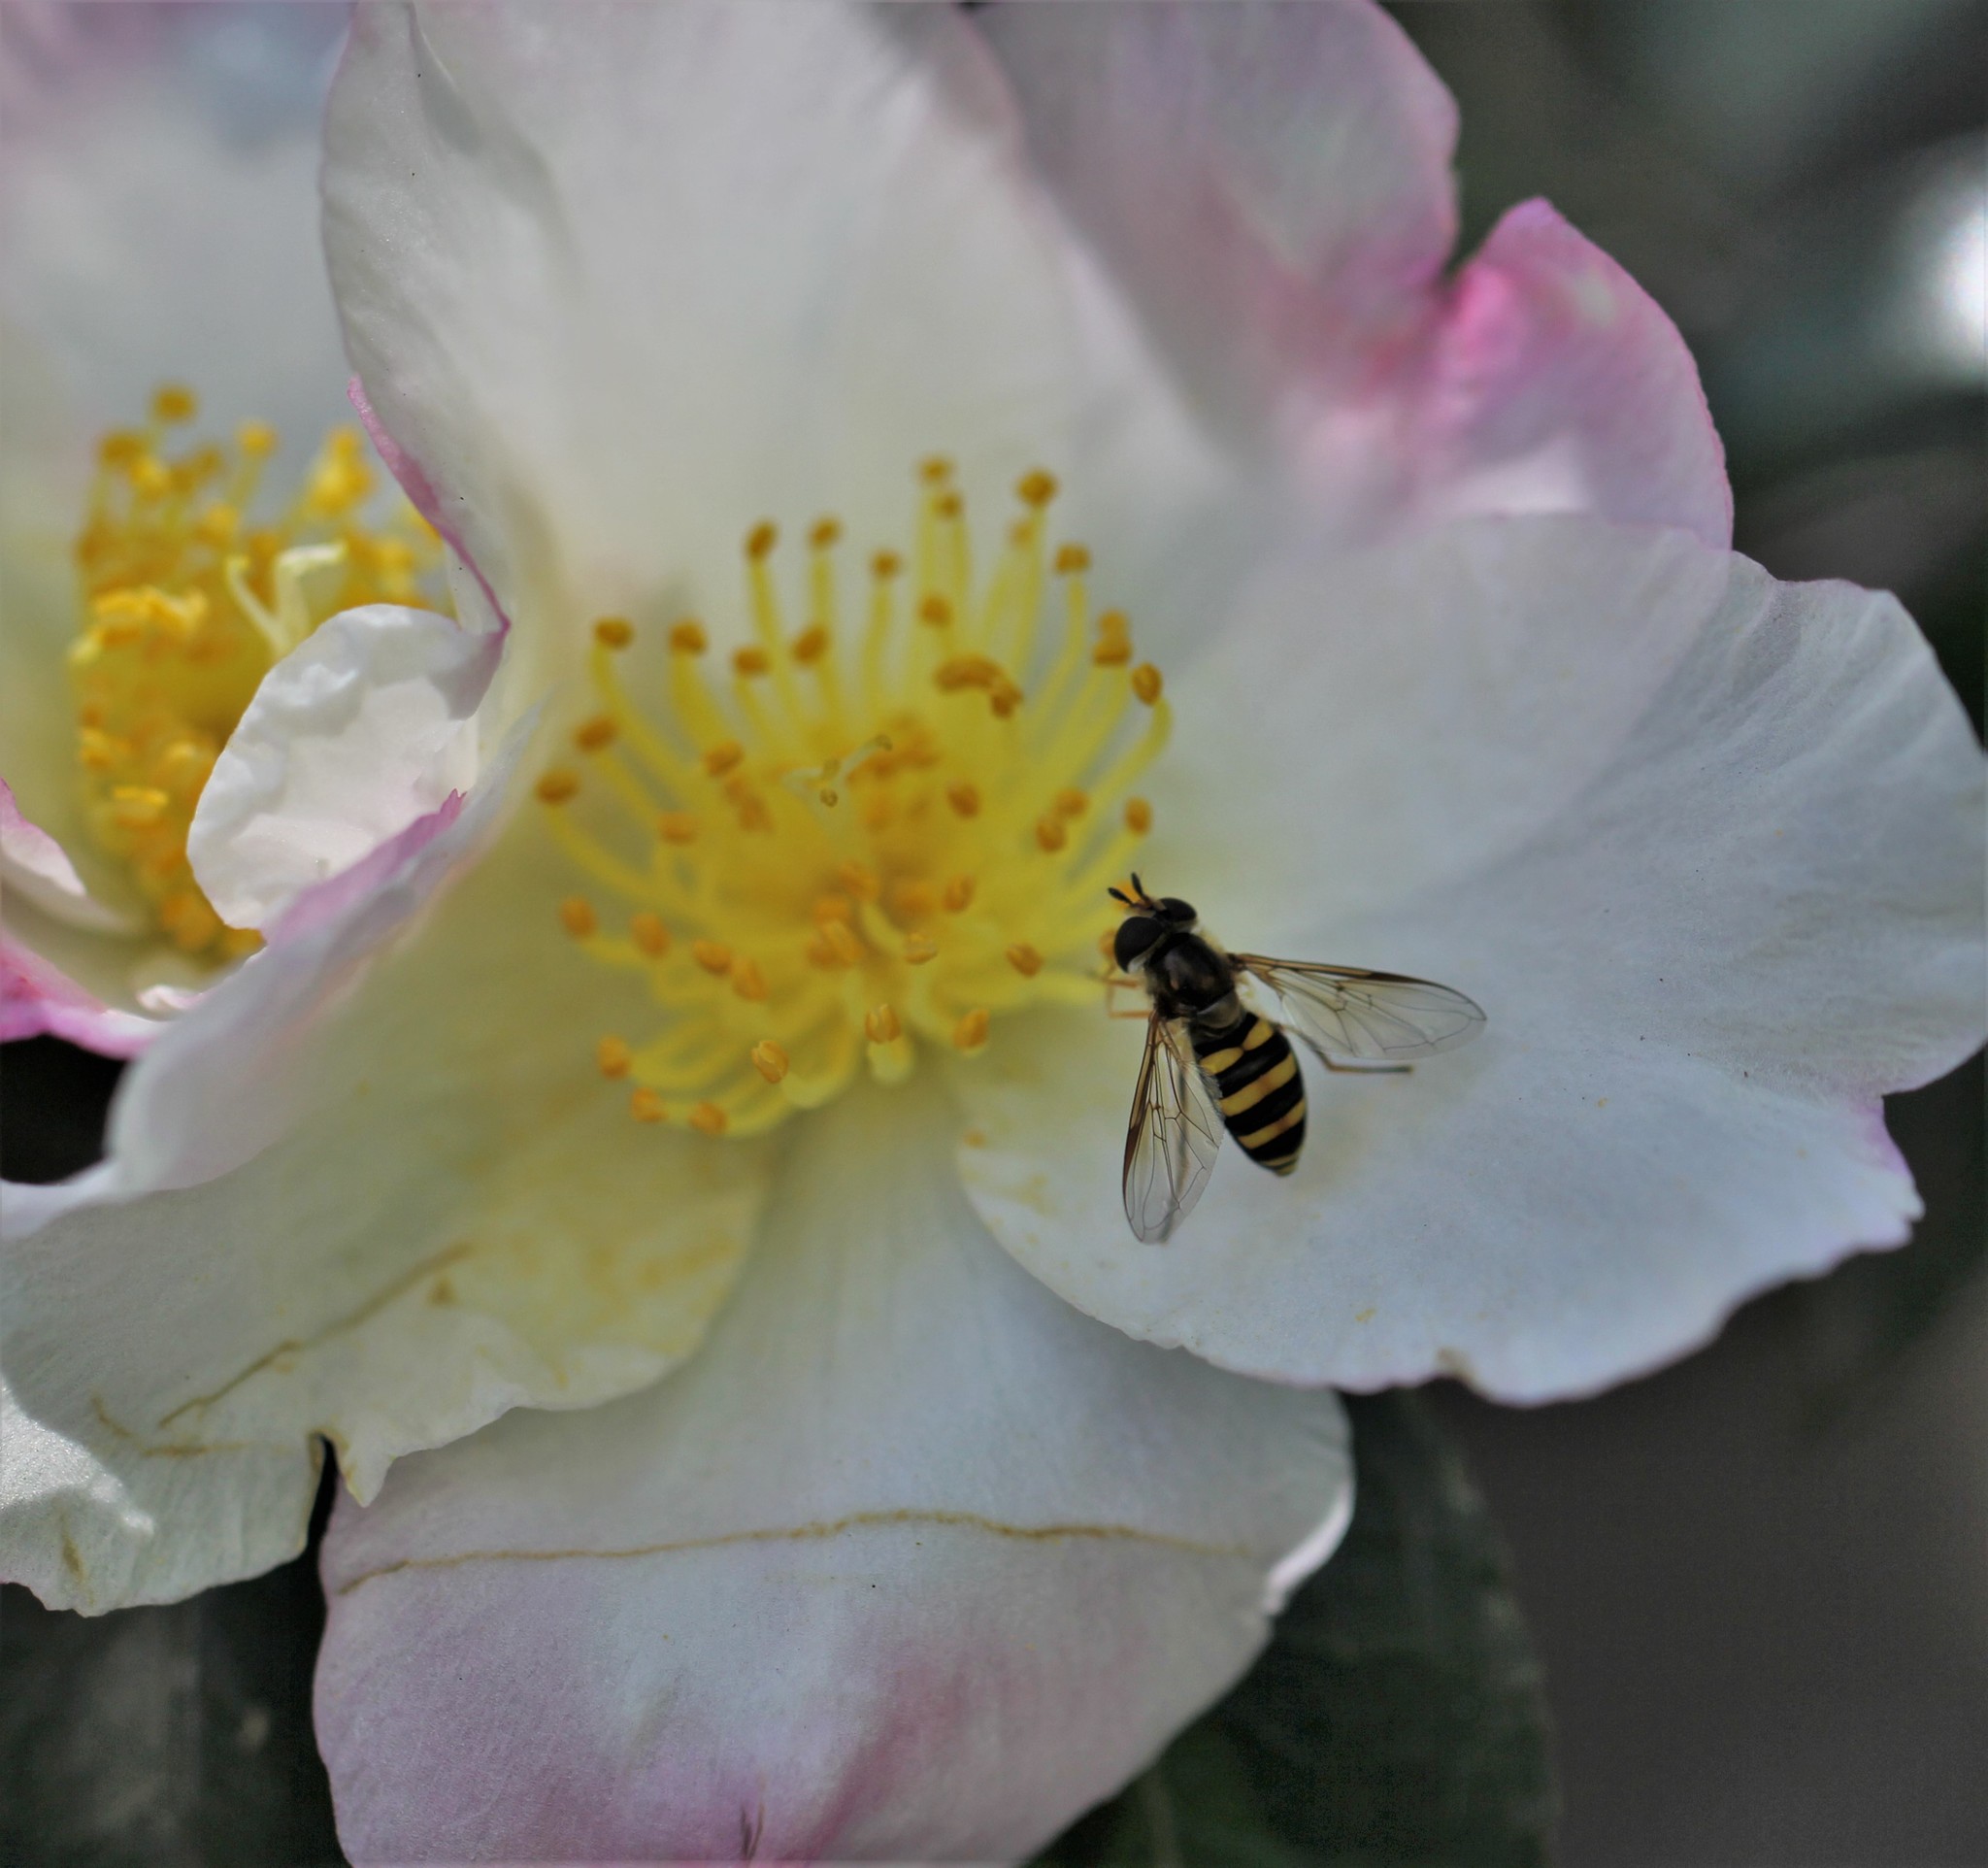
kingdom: Animalia
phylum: Arthropoda
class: Insecta
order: Diptera
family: Syrphidae
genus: Eupeodes
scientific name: Eupeodes
